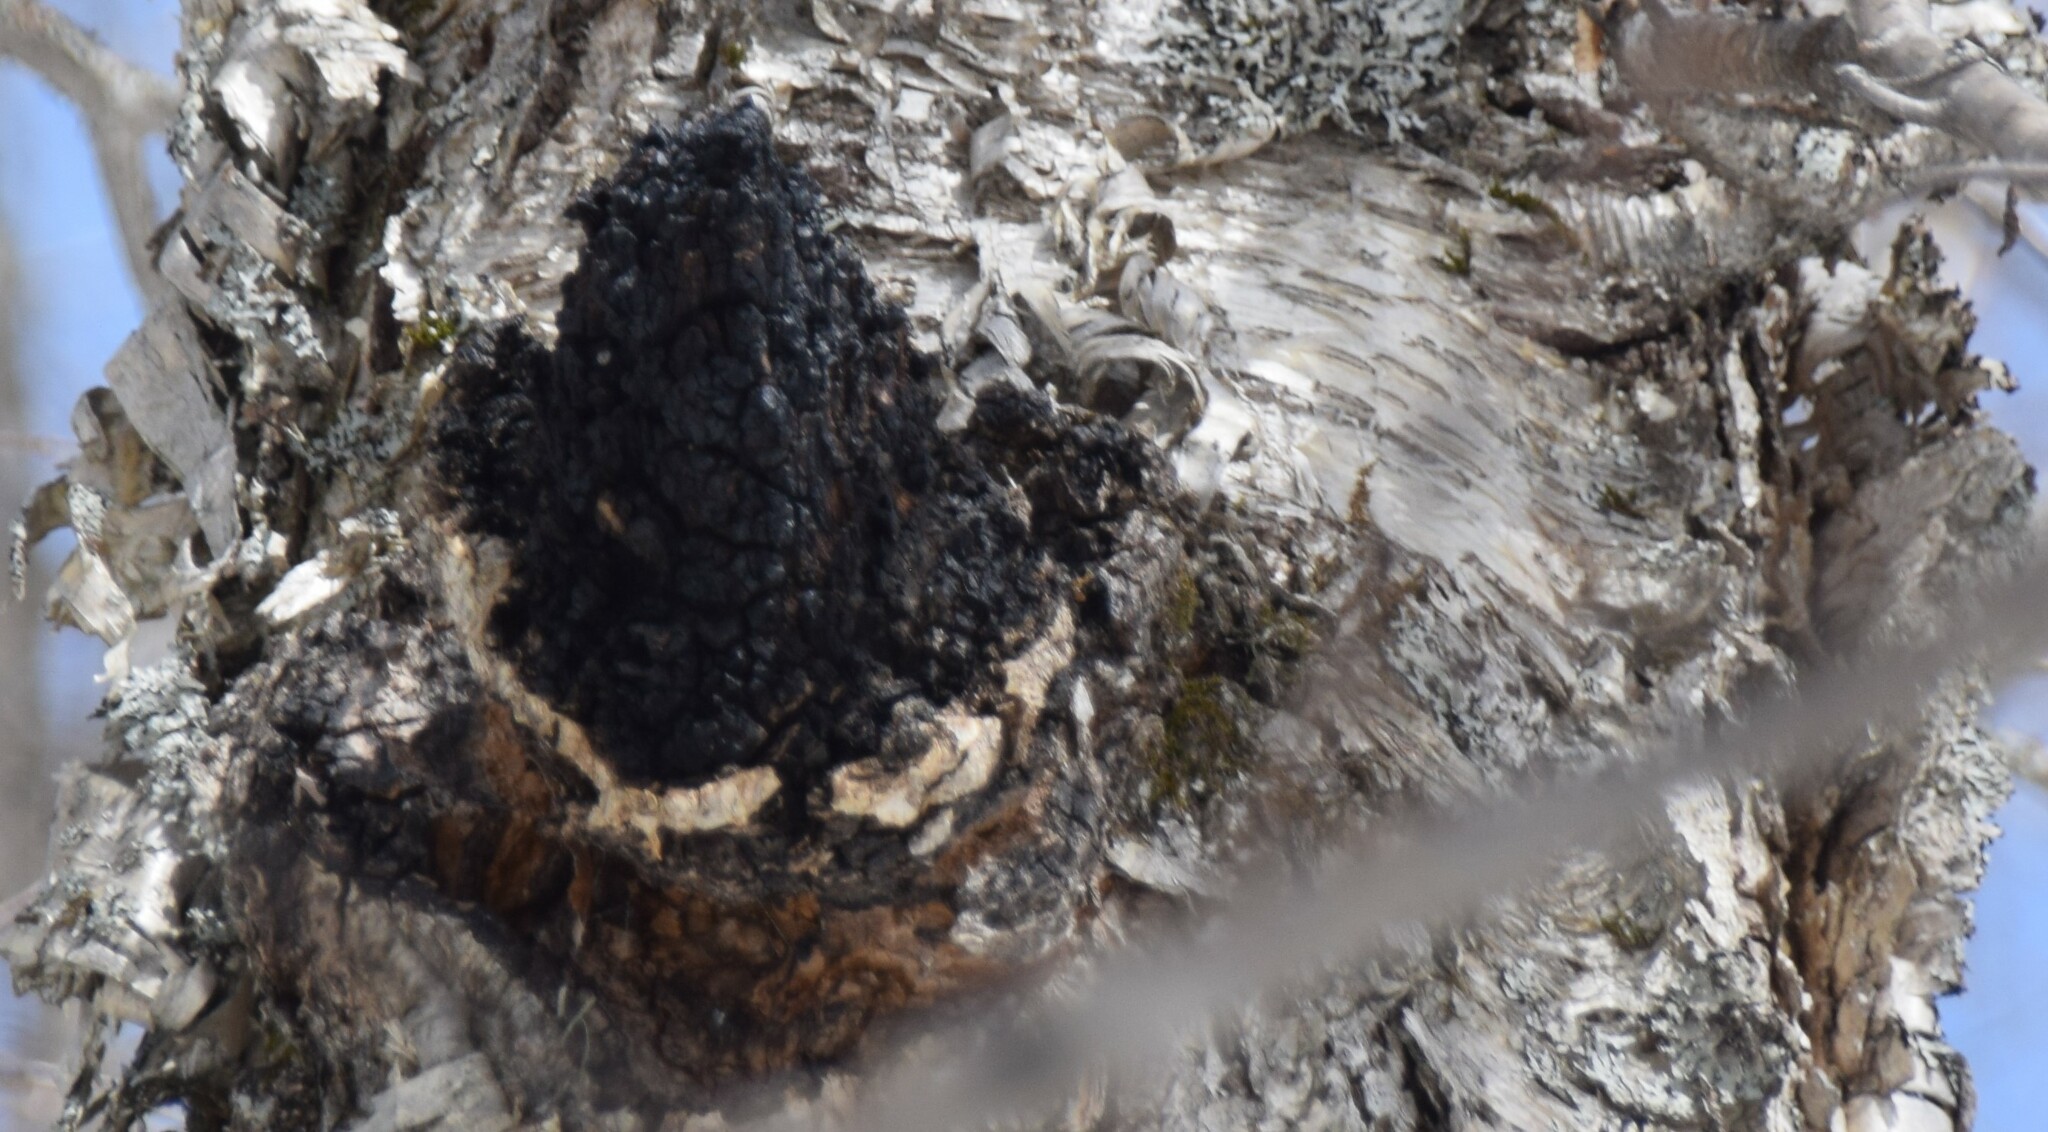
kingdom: Fungi
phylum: Basidiomycota
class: Agaricomycetes
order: Hymenochaetales
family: Hymenochaetaceae
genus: Inonotus
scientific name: Inonotus obliquus
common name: Chaga
